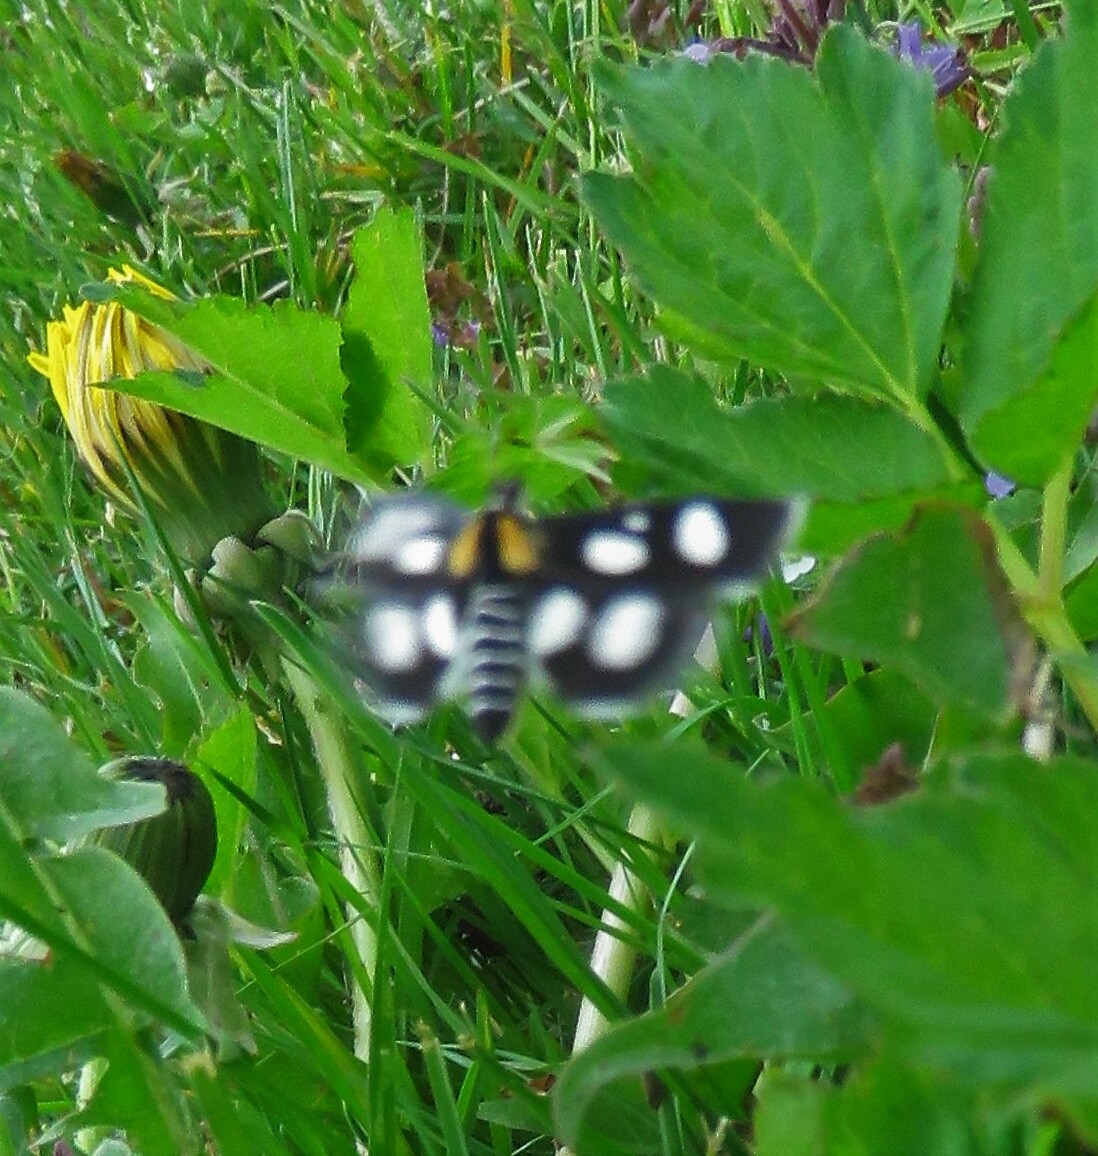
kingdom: Animalia
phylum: Arthropoda
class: Insecta
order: Lepidoptera
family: Crambidae
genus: Anania
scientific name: Anania funebris
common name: White-spotted sable moth
